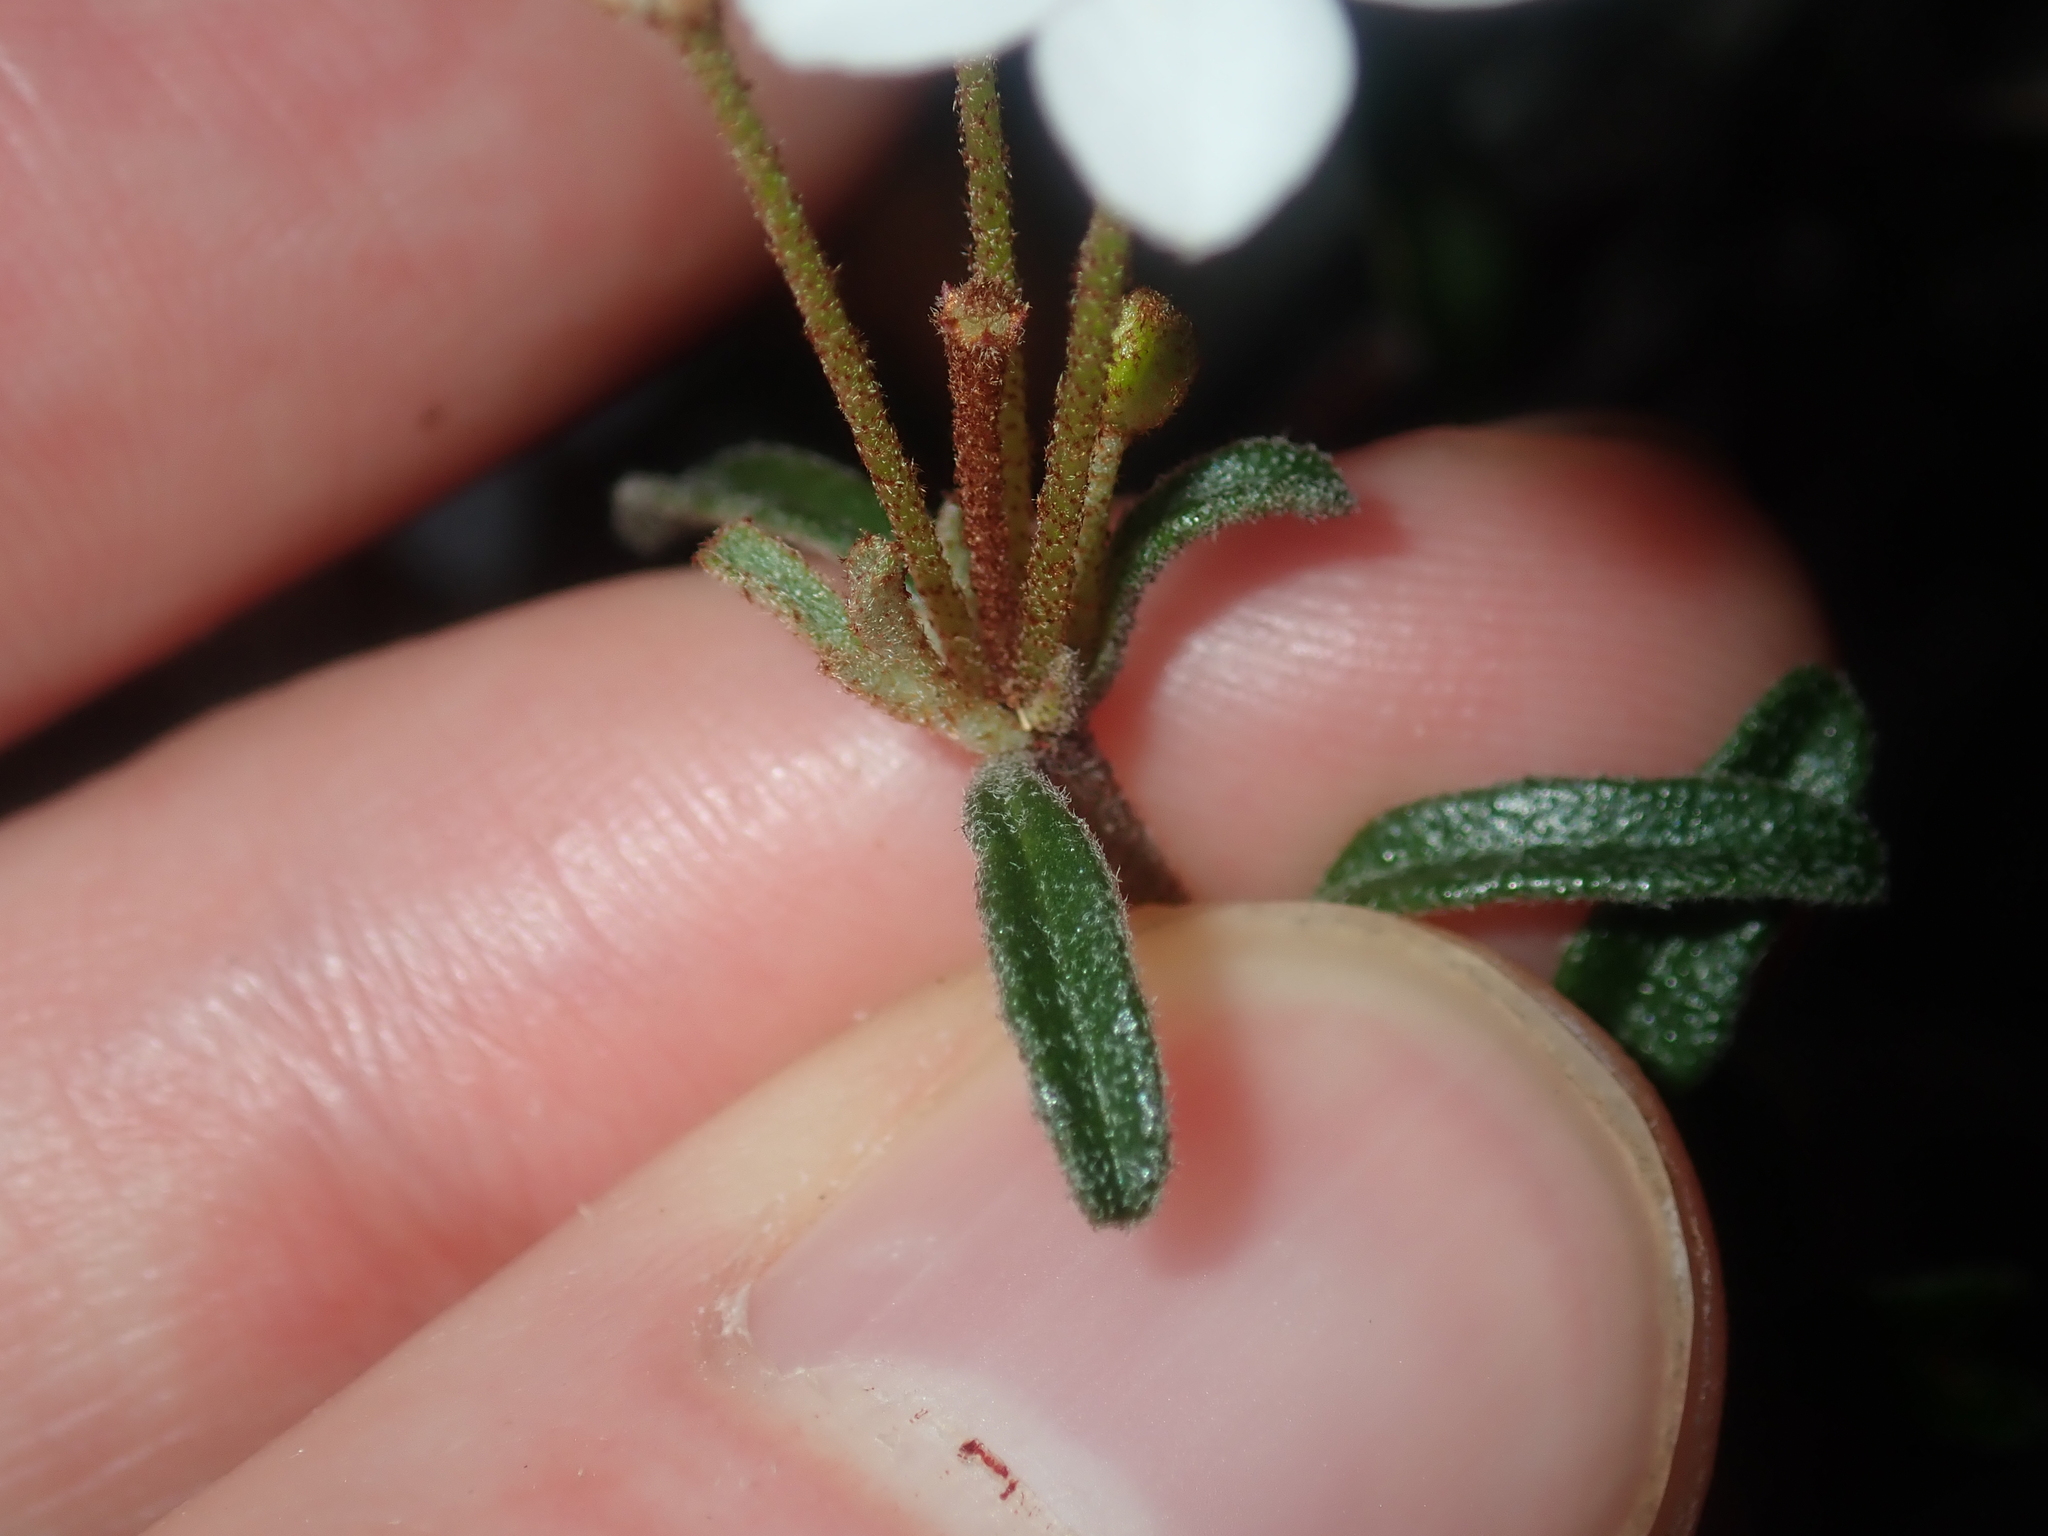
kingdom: Plantae
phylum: Tracheophyta
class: Magnoliopsida
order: Sapindales
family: Rutaceae
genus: Asterolasia
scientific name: Asterolasia drummondii
